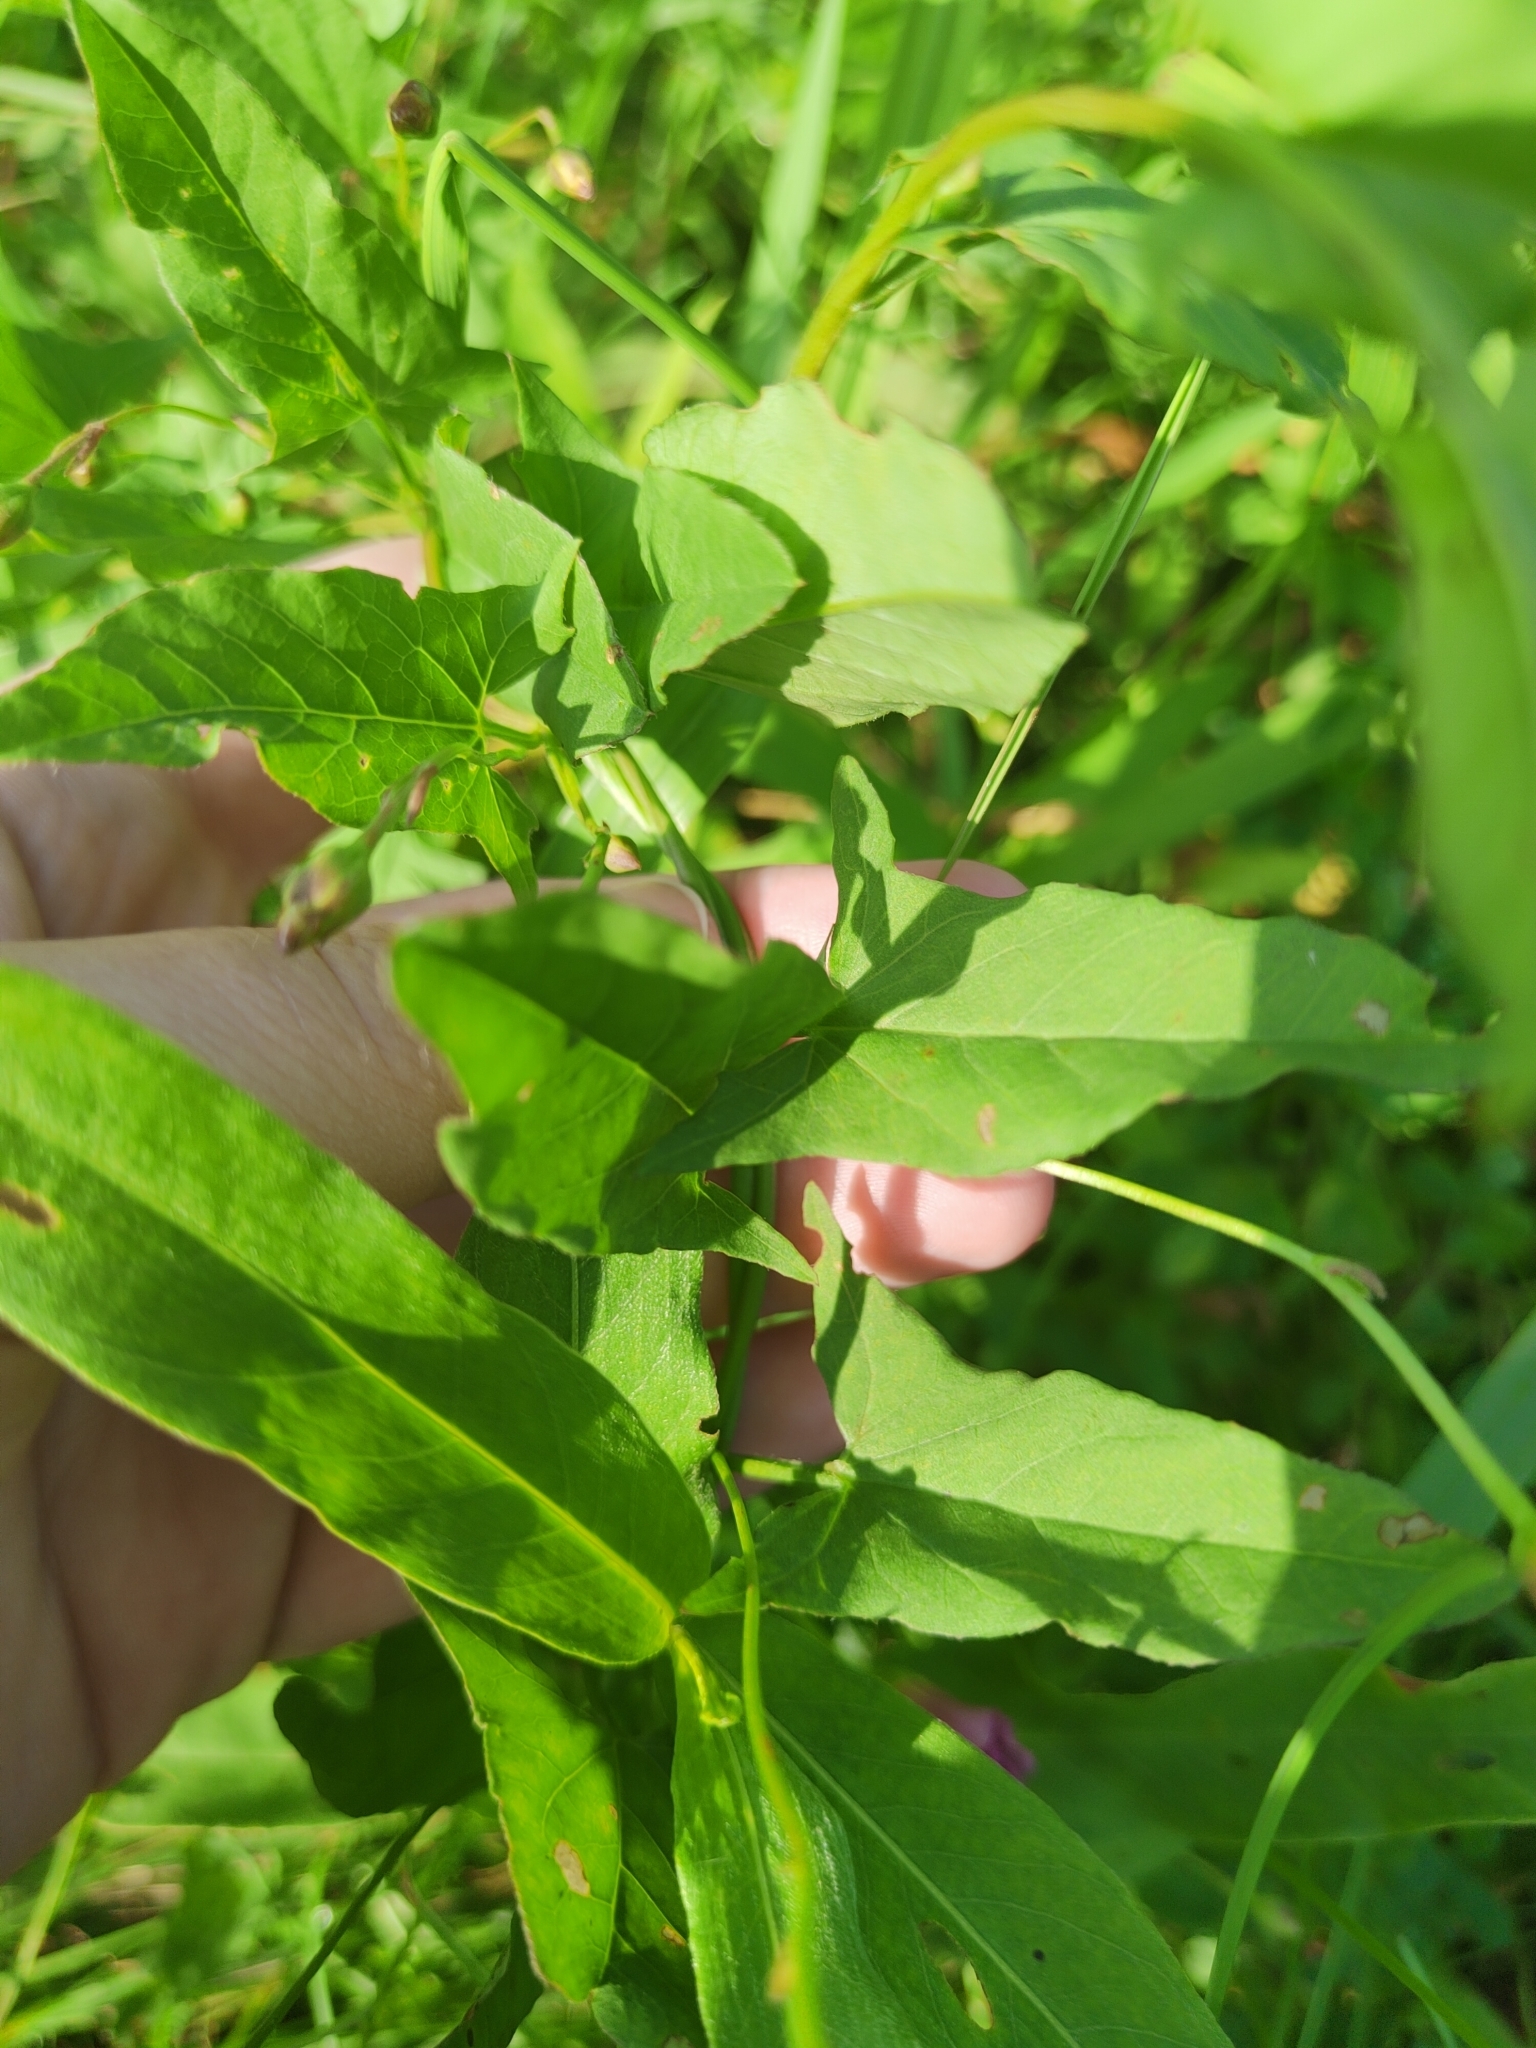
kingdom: Plantae
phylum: Tracheophyta
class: Magnoliopsida
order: Solanales
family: Convolvulaceae
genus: Convolvulus
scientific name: Convolvulus arvensis
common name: Field bindweed
